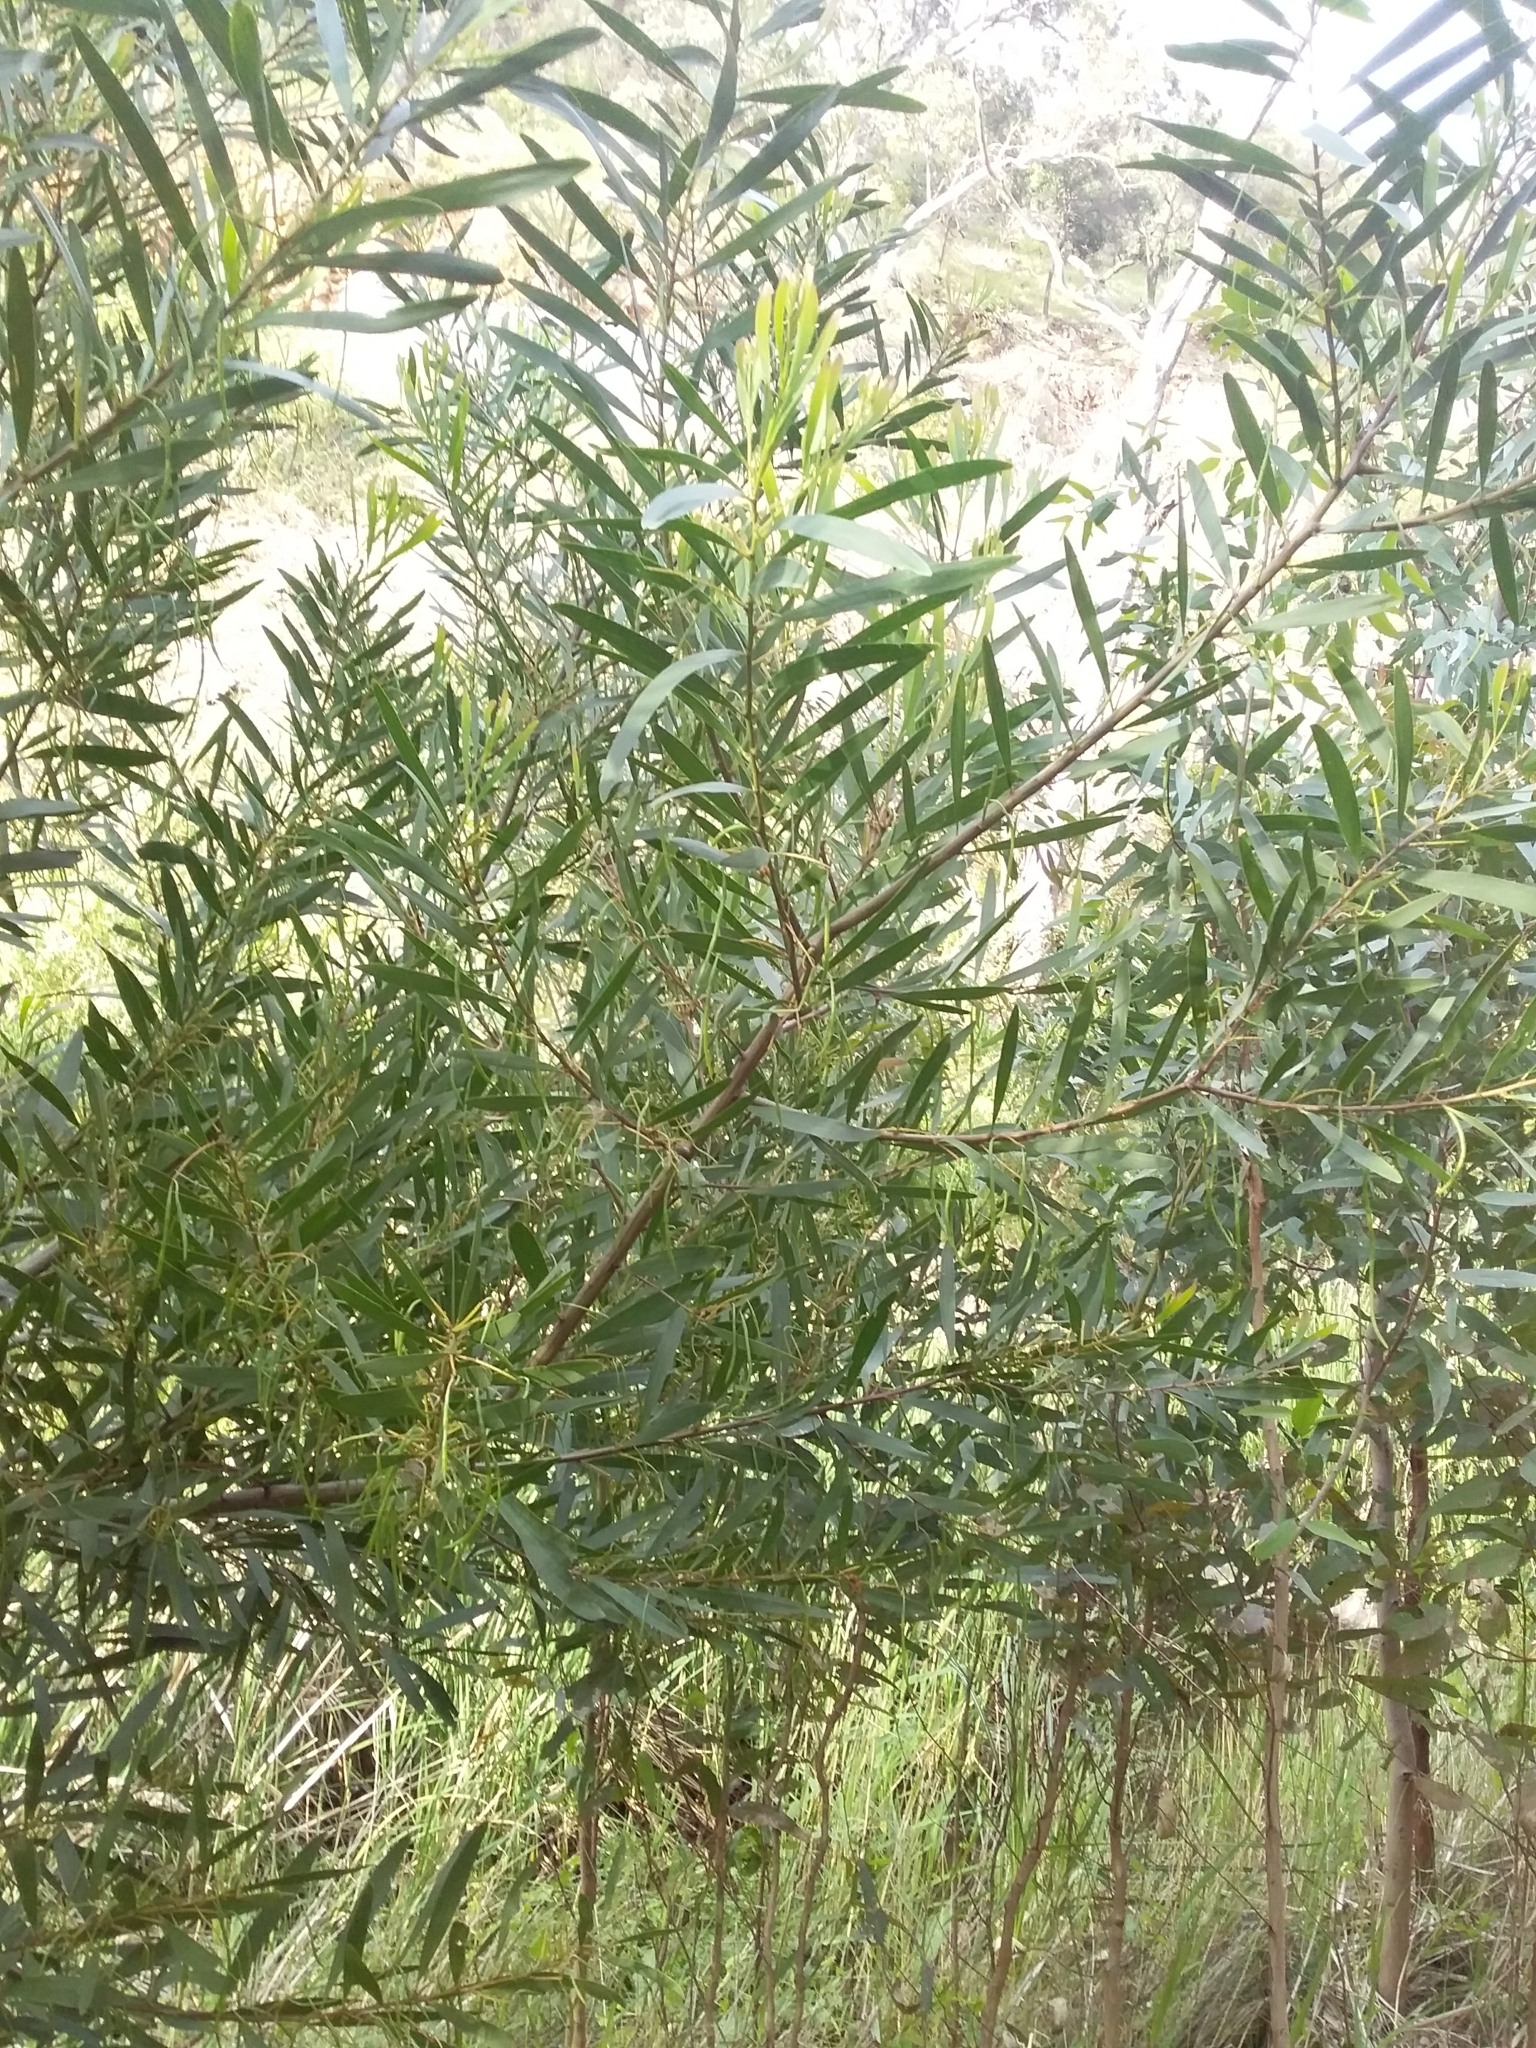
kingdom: Plantae
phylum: Tracheophyta
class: Magnoliopsida
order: Fabales
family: Fabaceae
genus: Acacia
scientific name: Acacia longifolia
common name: Sydney golden wattle
